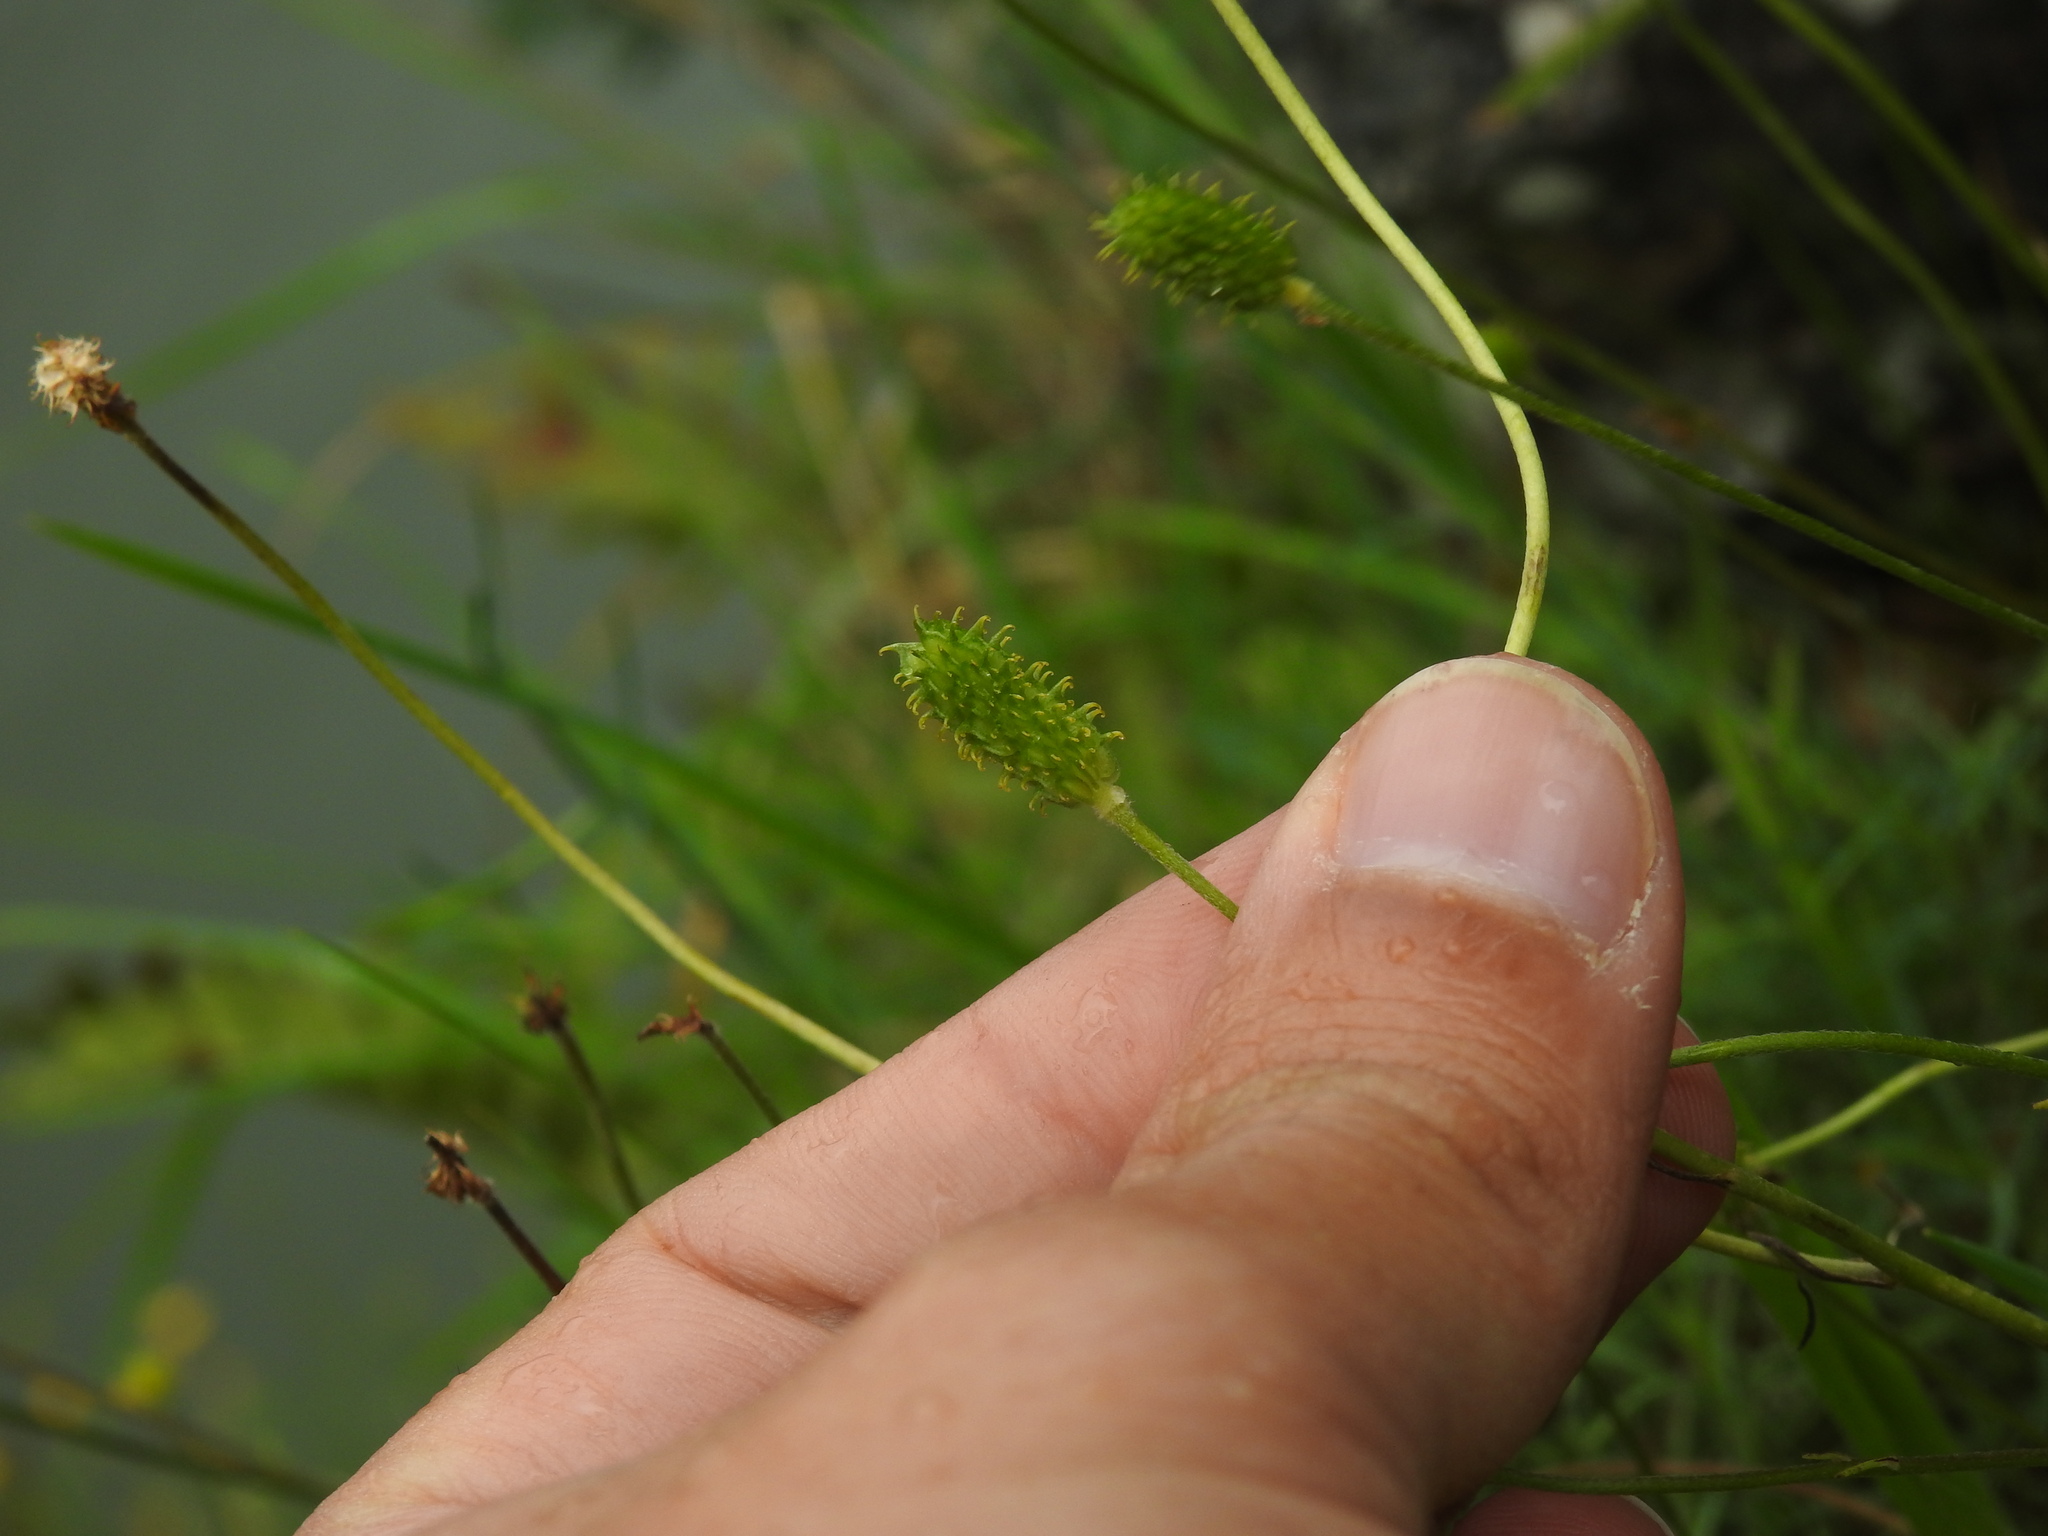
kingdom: Plantae
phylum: Tracheophyta
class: Magnoliopsida
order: Ranunculales
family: Ranunculaceae
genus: Ranunculus
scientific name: Ranunculus ollissiponensis
